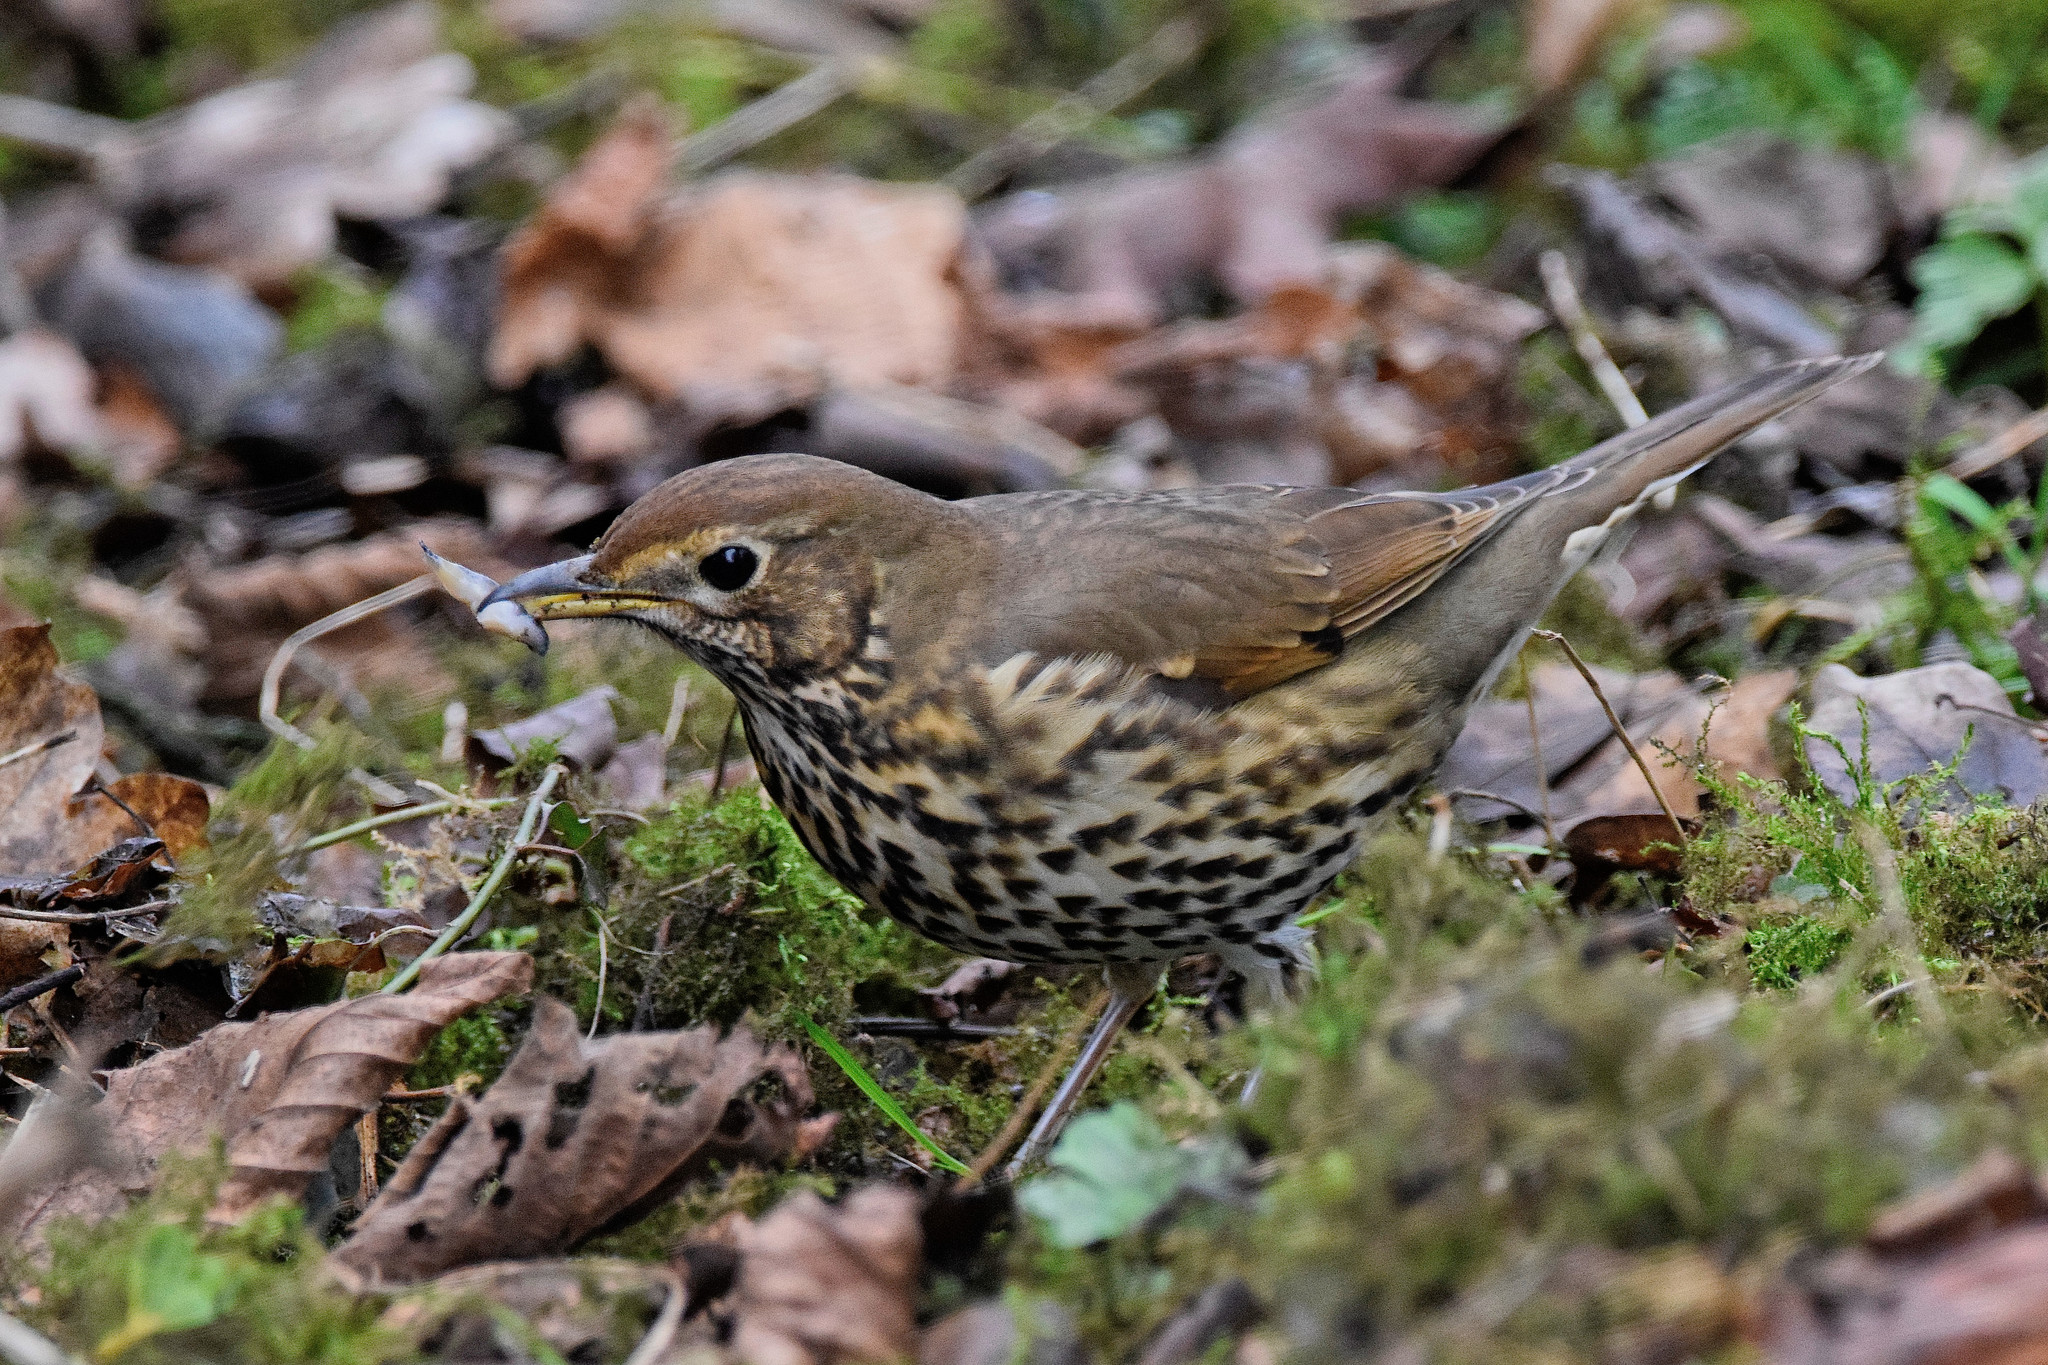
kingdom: Animalia
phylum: Chordata
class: Aves
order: Passeriformes
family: Turdidae
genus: Turdus
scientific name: Turdus philomelos
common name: Song thrush
